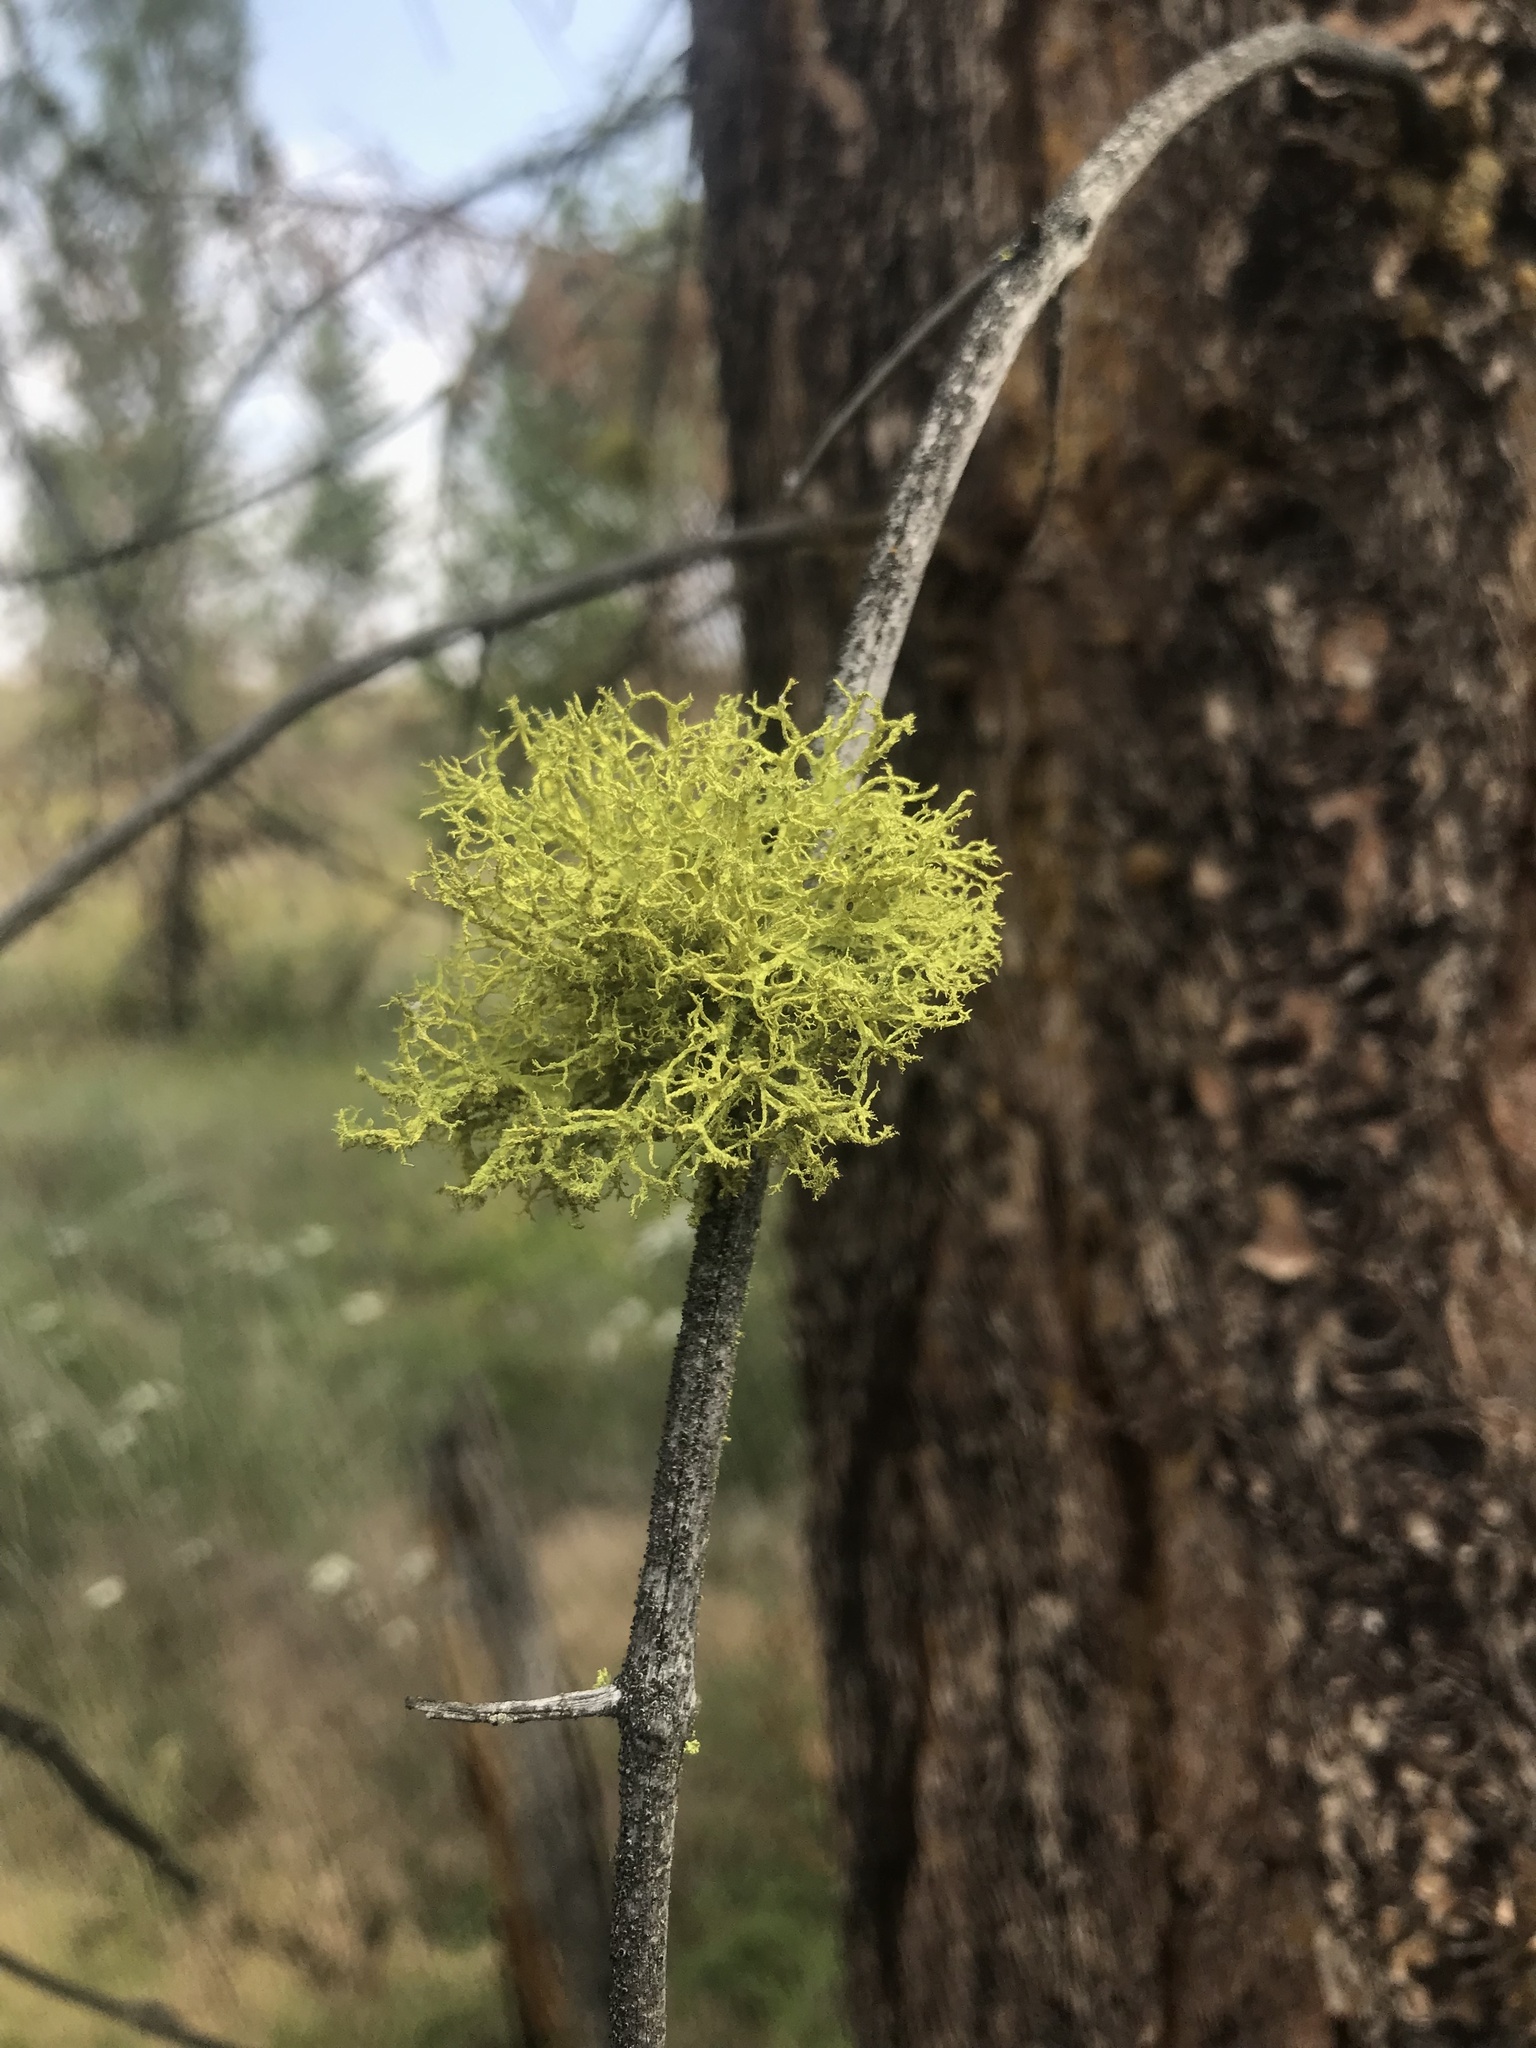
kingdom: Fungi
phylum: Ascomycota
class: Lecanoromycetes
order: Lecanorales
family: Parmeliaceae
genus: Letharia
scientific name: Letharia vulpina
